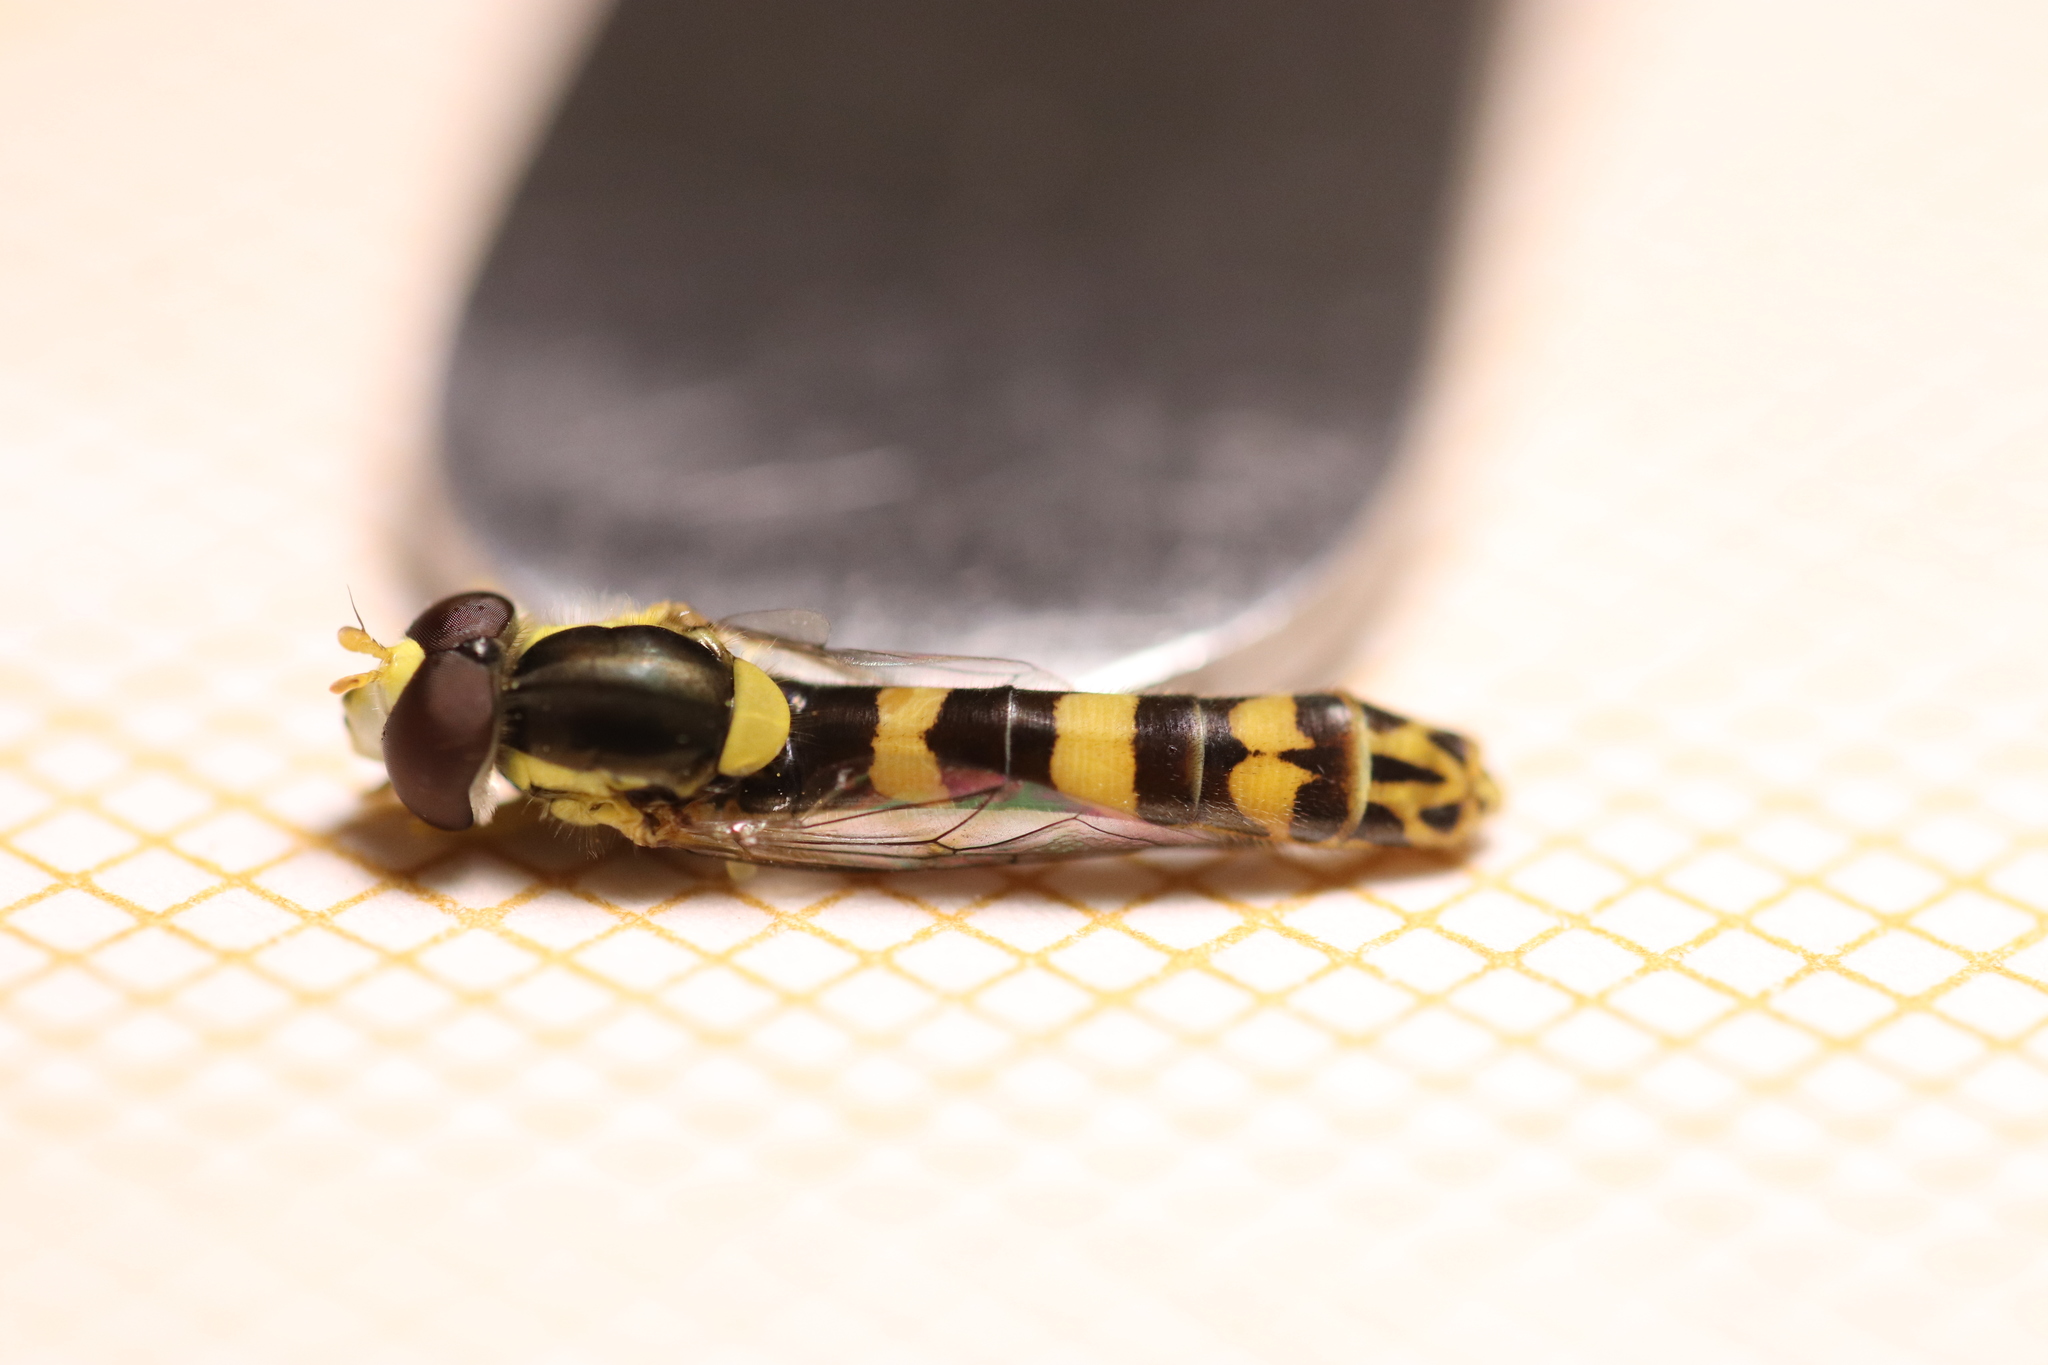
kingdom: Animalia
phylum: Arthropoda
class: Insecta
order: Diptera
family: Syrphidae
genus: Sphaerophoria
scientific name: Sphaerophoria scripta
